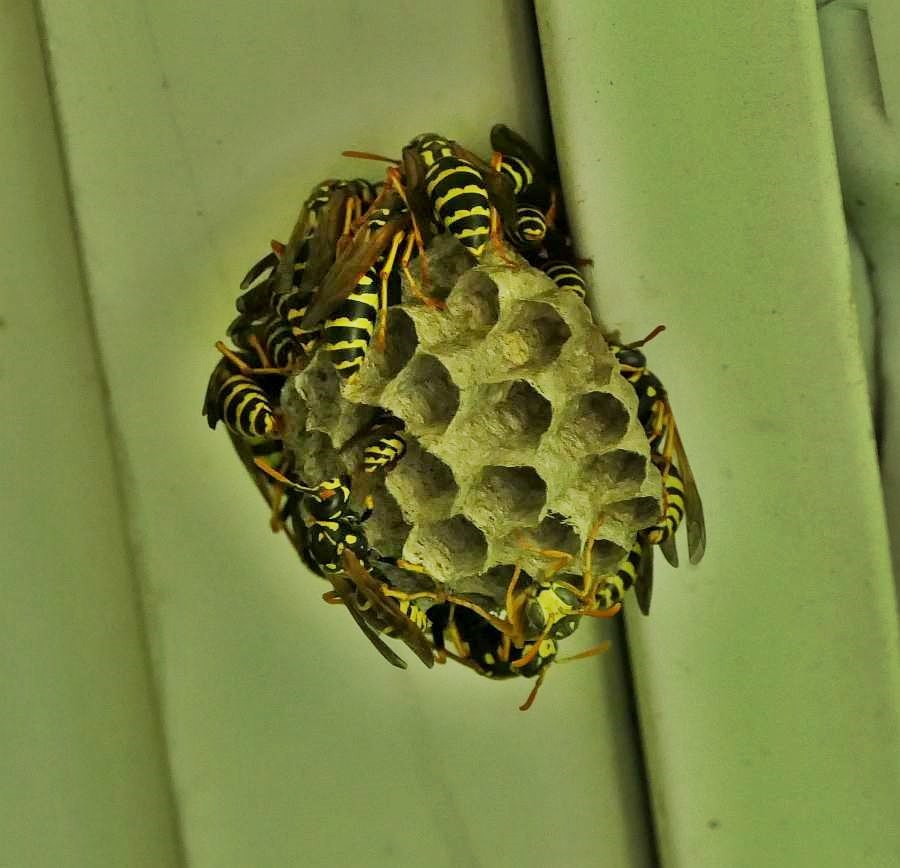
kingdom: Animalia
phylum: Arthropoda
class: Insecta
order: Hymenoptera
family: Eumenidae
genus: Polistes
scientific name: Polistes dominula
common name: Paper wasp
